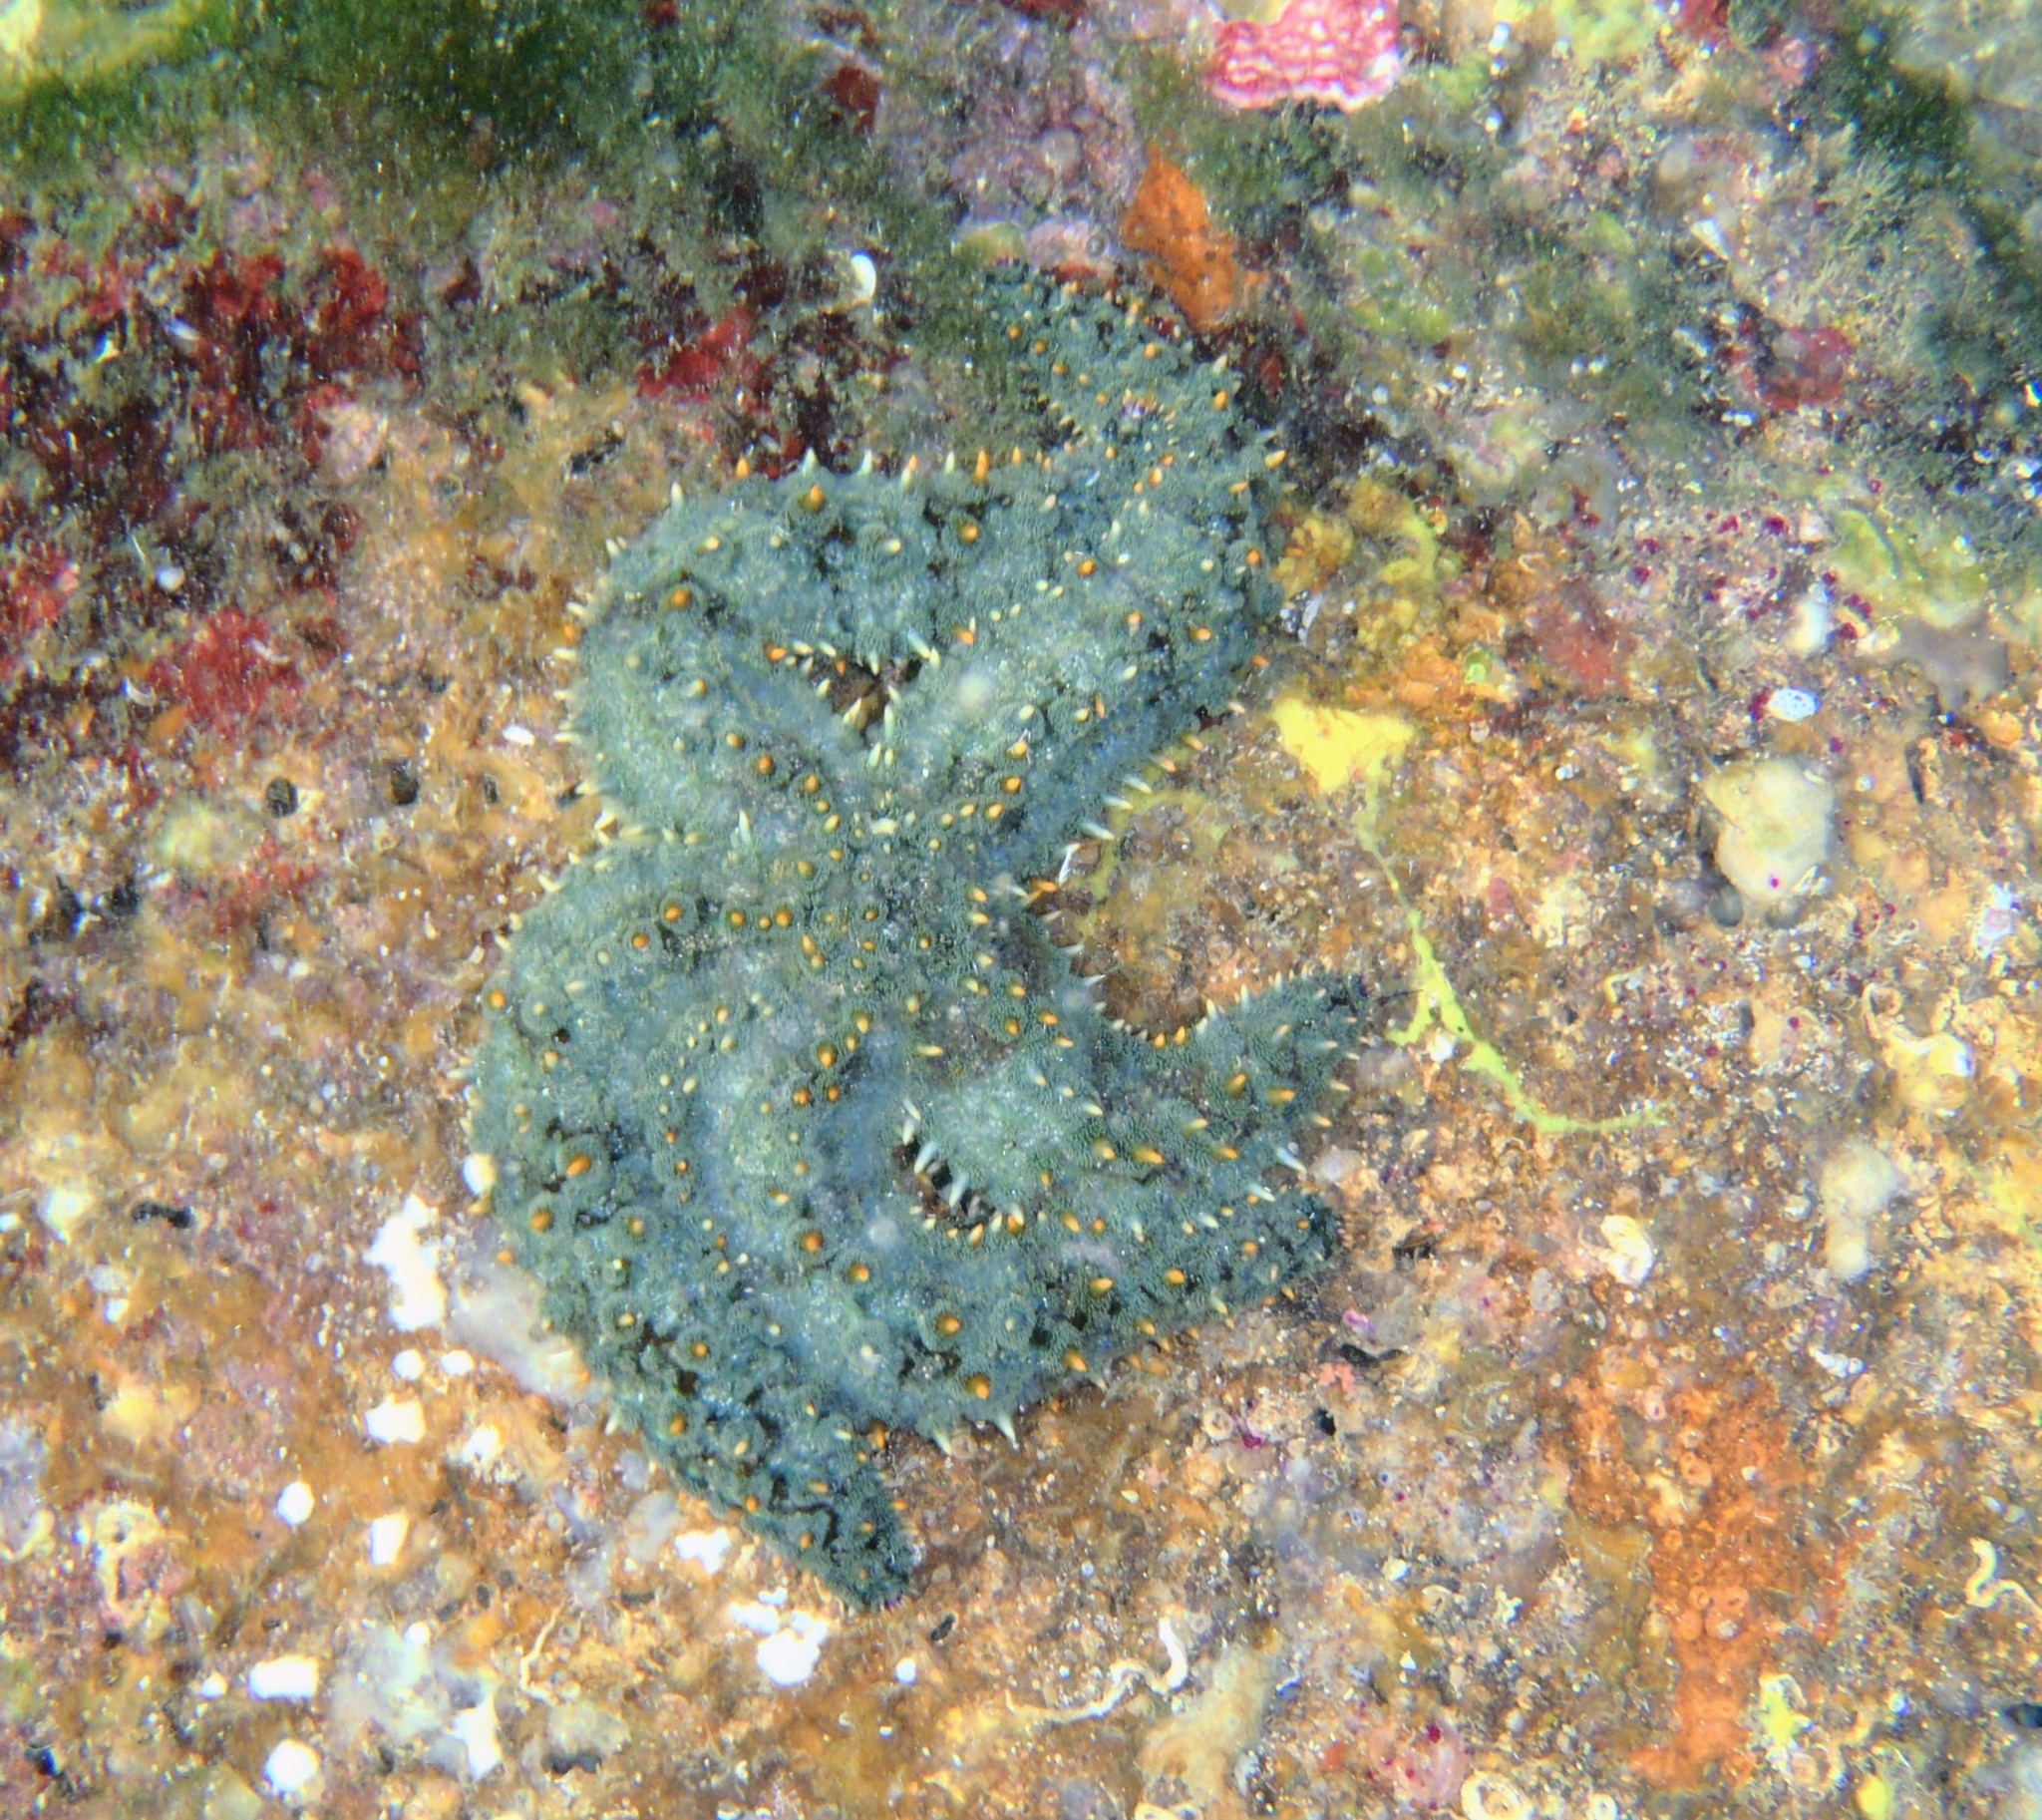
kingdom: Animalia
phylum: Echinodermata
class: Asteroidea
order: Forcipulatida
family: Asteriidae
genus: Marthasterias
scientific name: Marthasterias glacialis
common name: Spiny starfish
